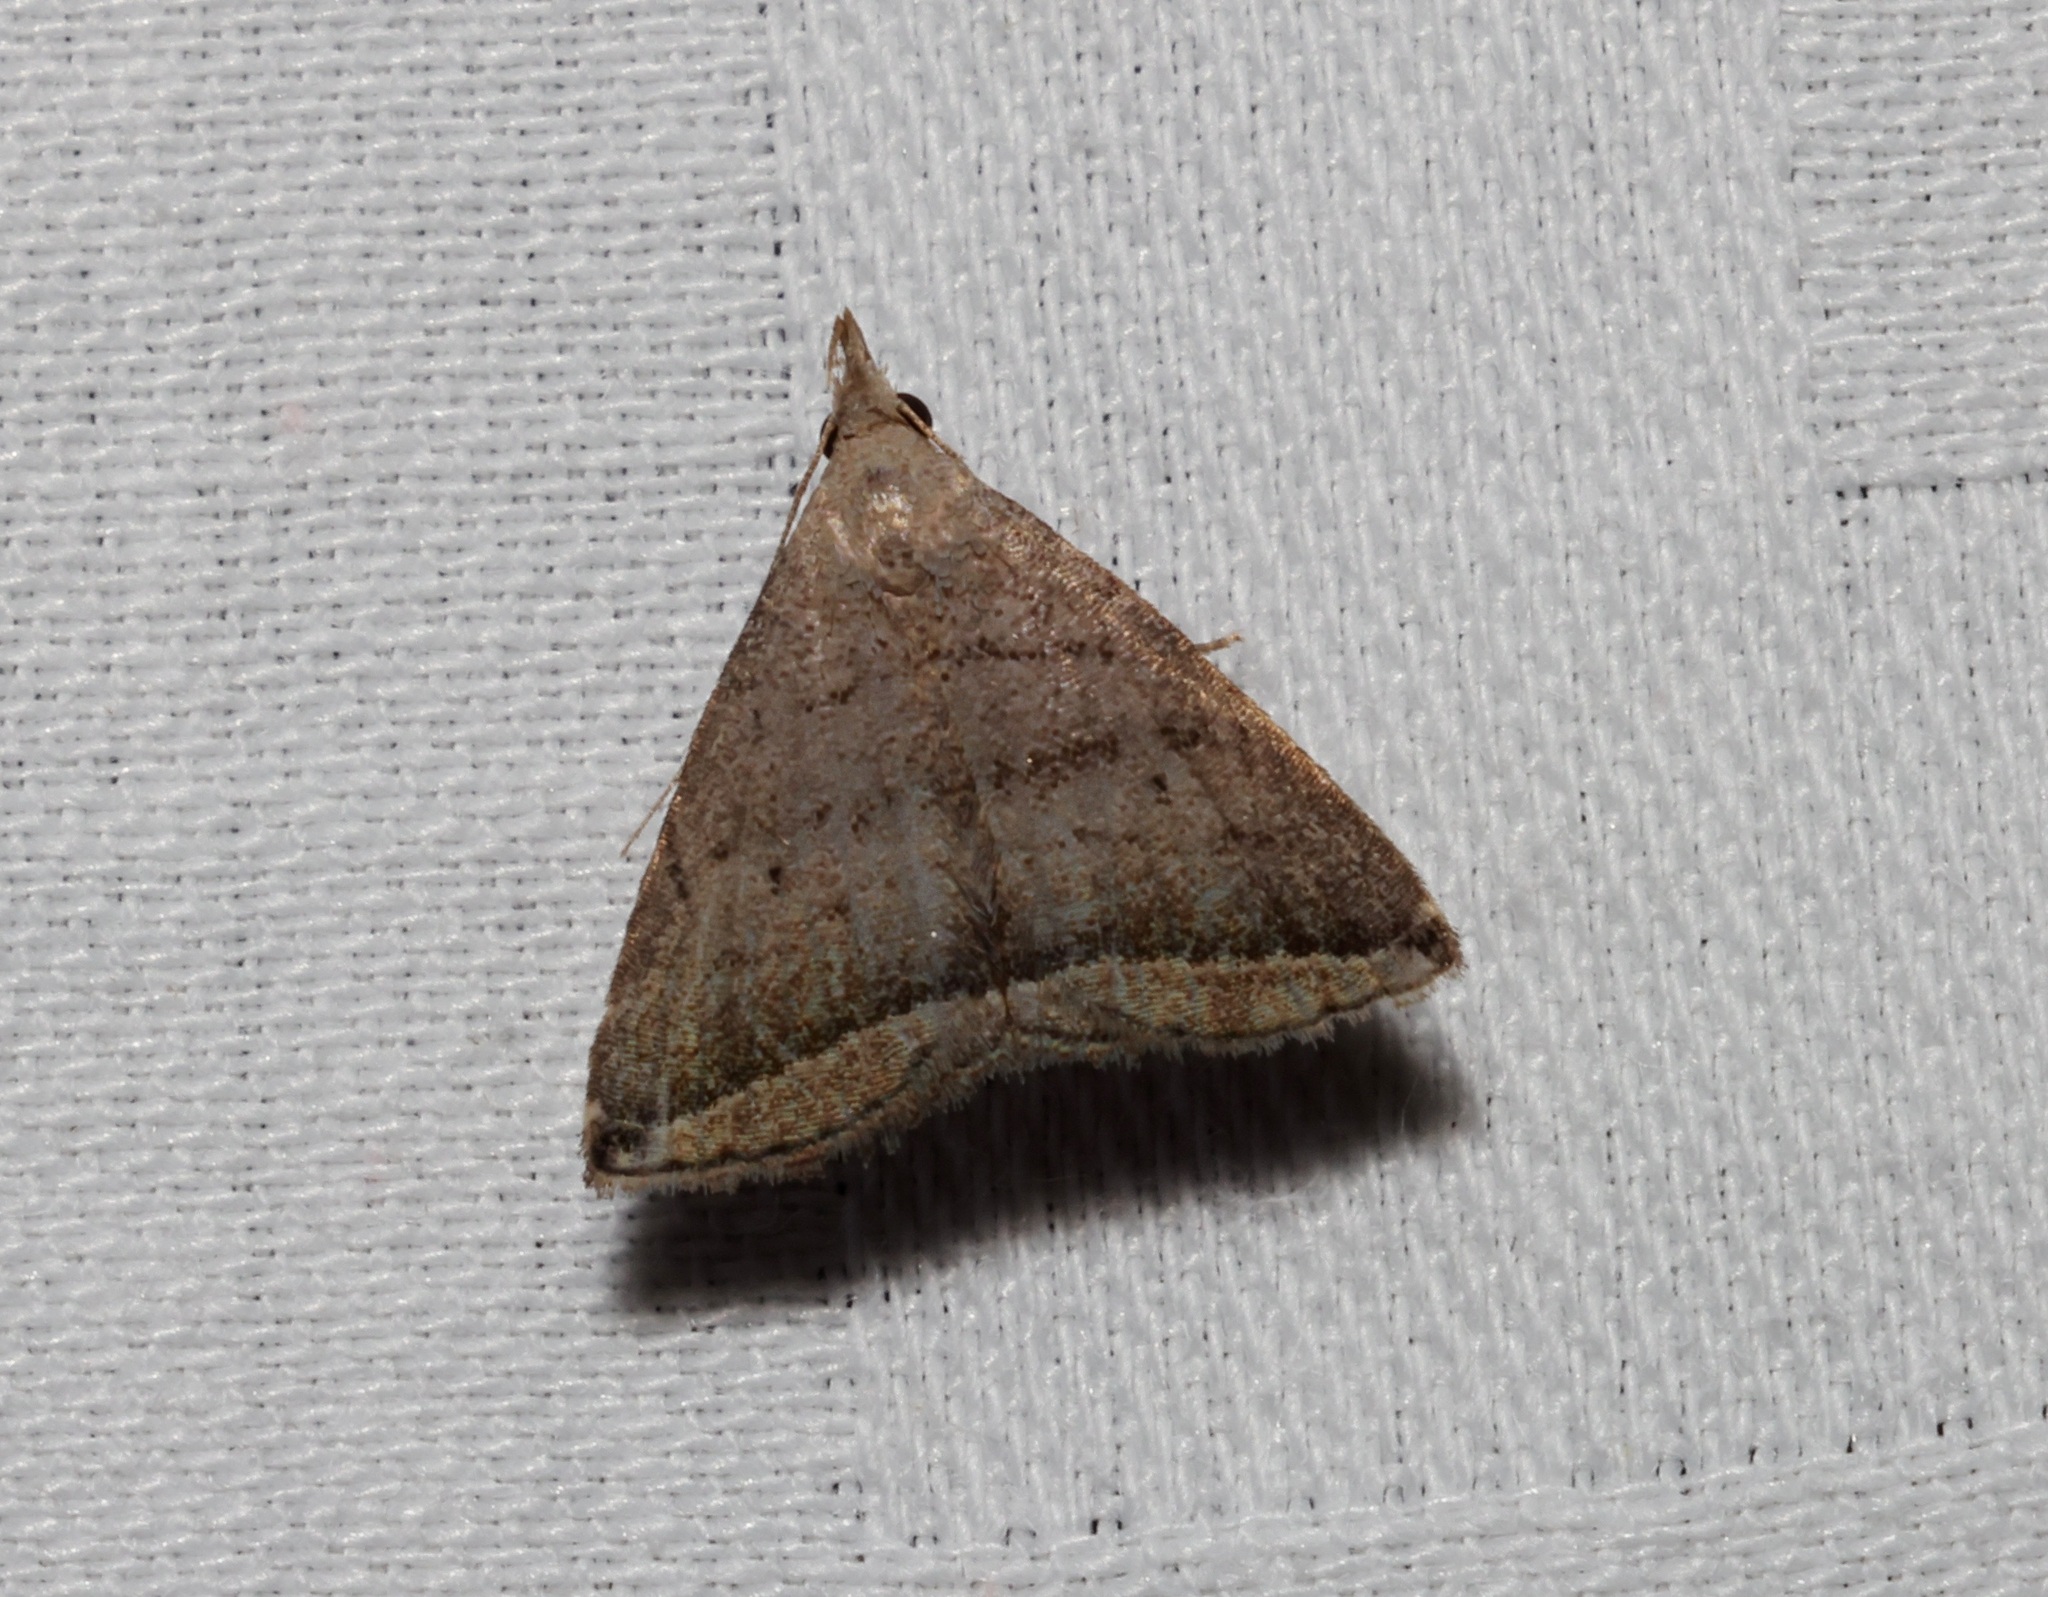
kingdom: Animalia
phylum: Arthropoda
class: Insecta
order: Lepidoptera
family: Erebidae
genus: Polypogon
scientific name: Polypogon neleusalis
